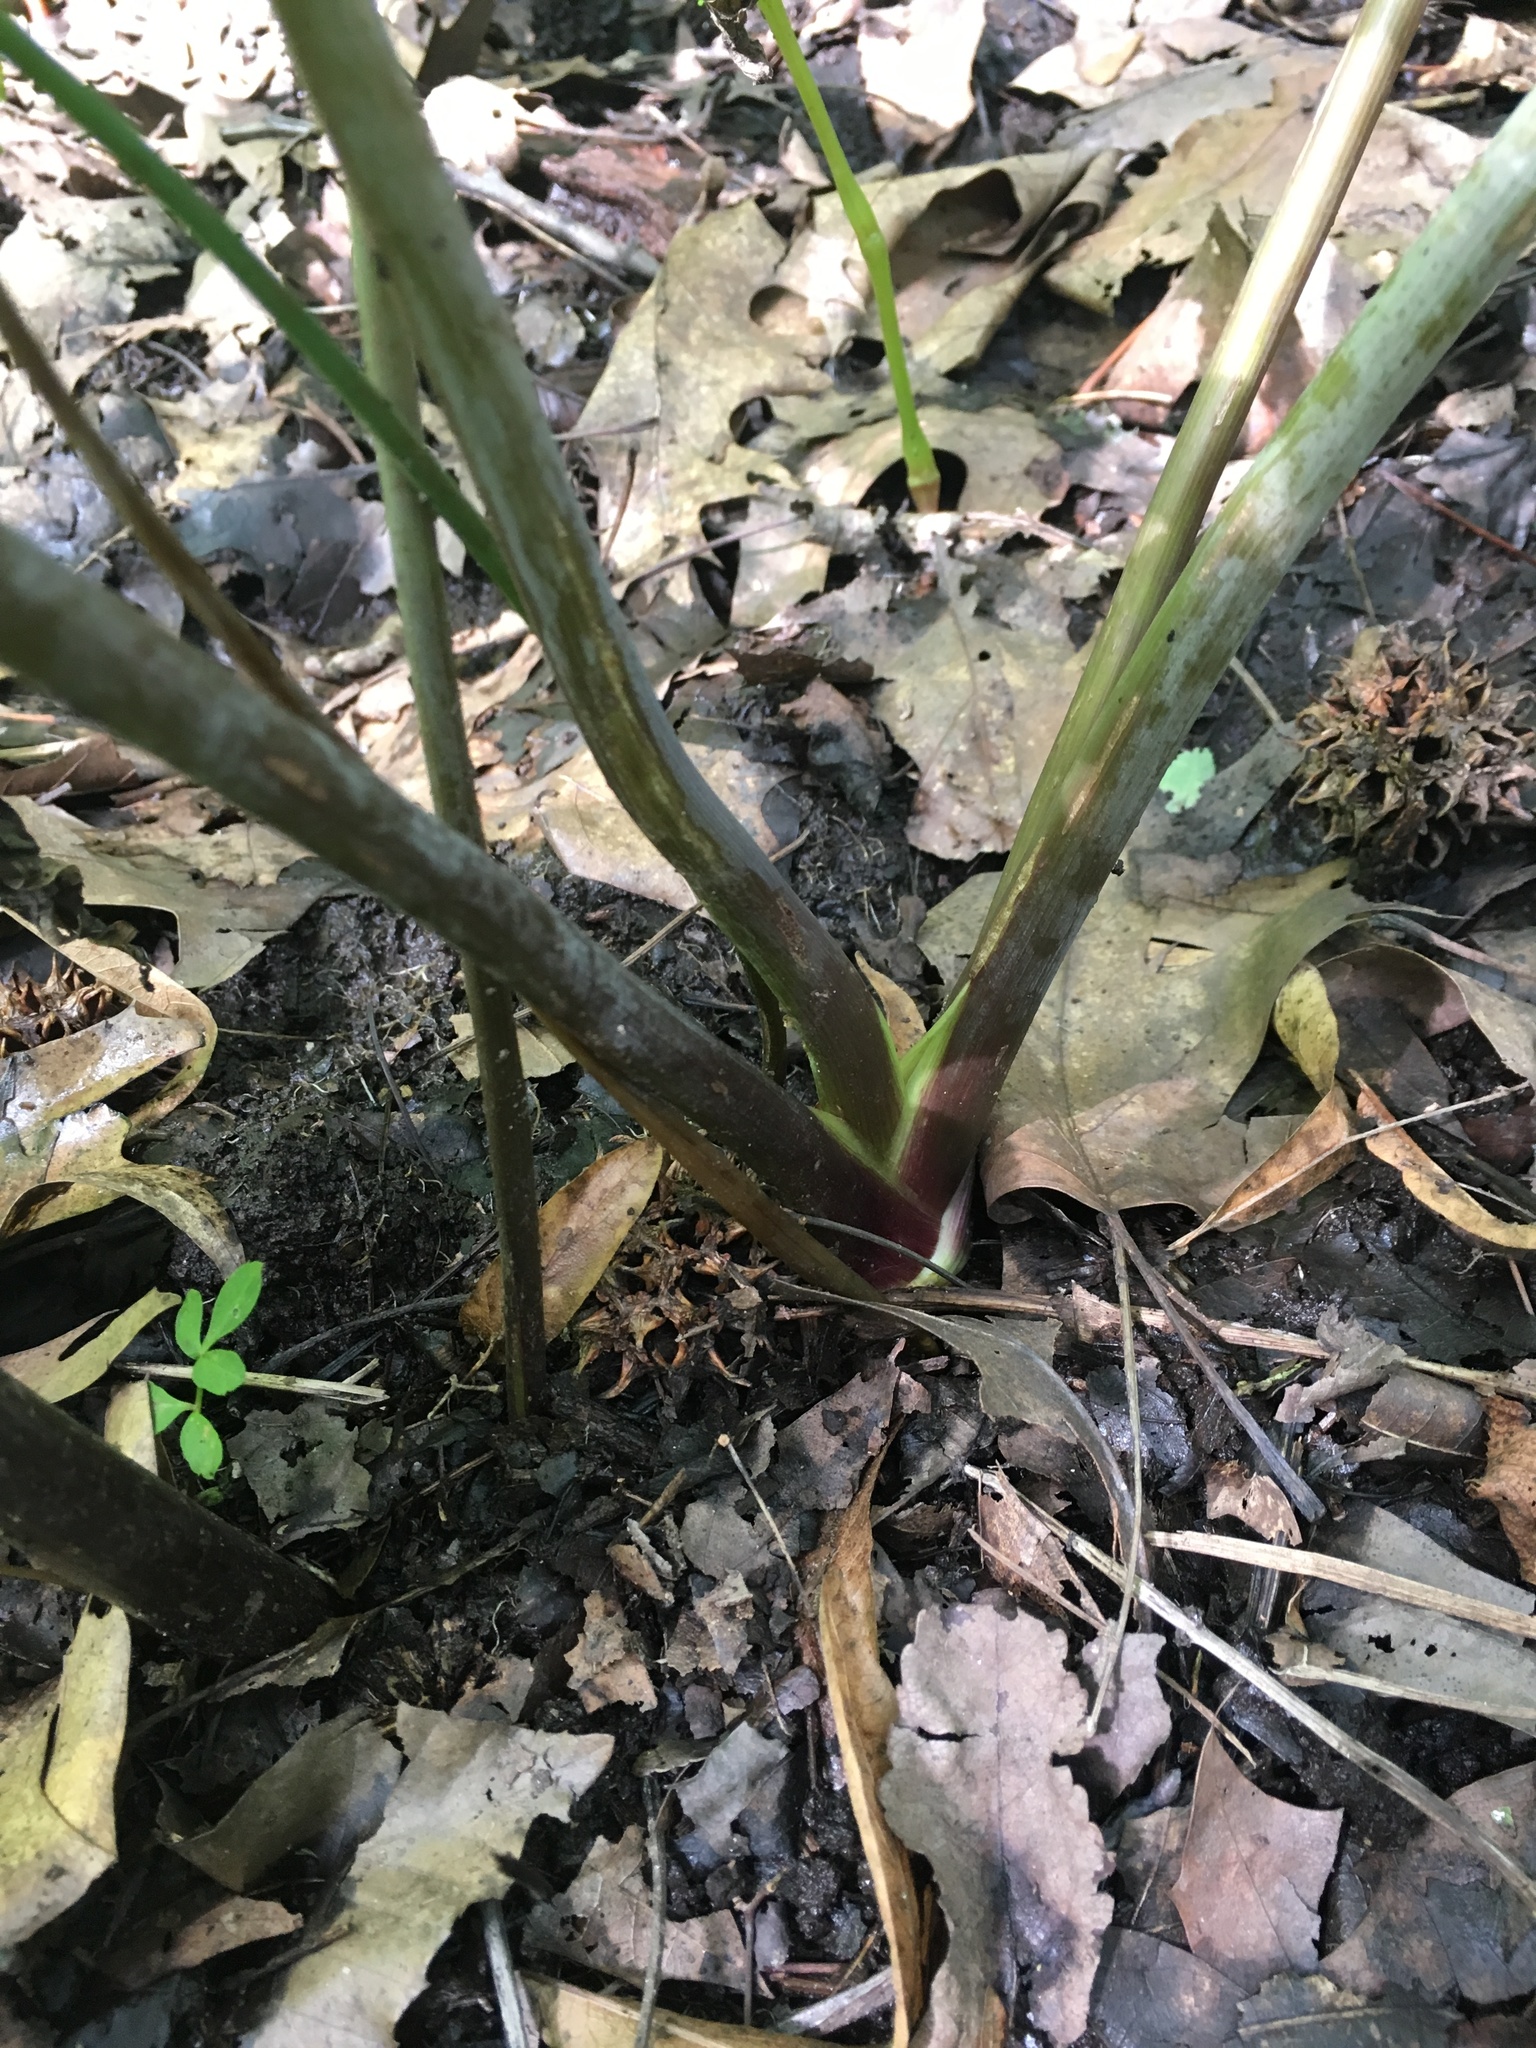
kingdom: Plantae
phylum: Tracheophyta
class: Magnoliopsida
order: Apiales
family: Apiaceae
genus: Cicuta
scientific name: Cicuta maculata
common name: Spotted cowbane
